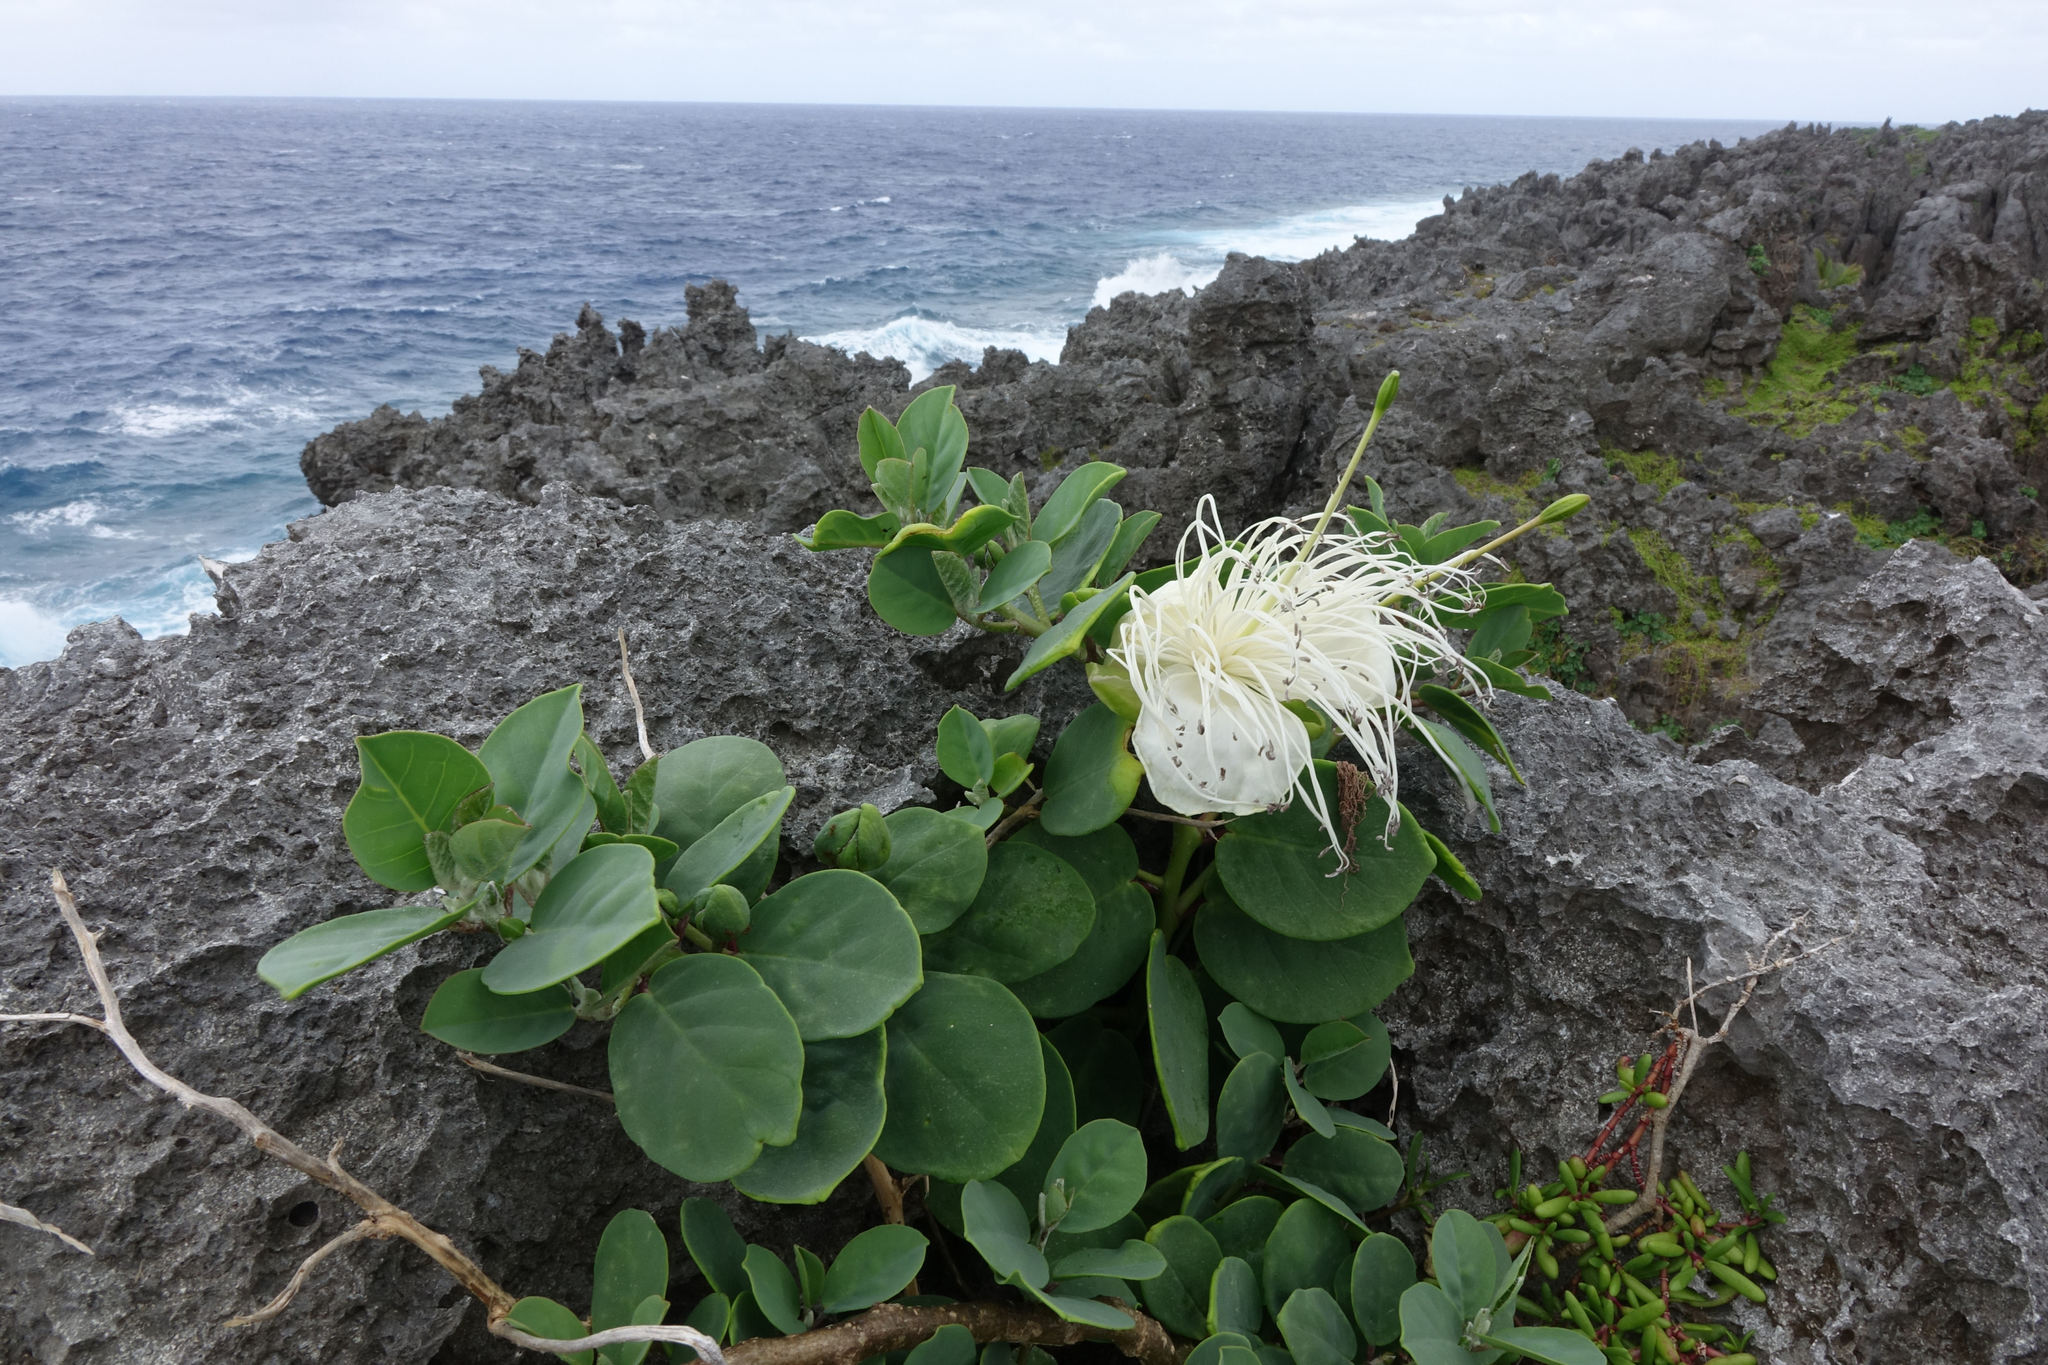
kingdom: Plantae
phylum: Tracheophyta
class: Magnoliopsida
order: Brassicales
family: Capparaceae
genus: Capparis
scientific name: Capparis spinosa
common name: Caper
